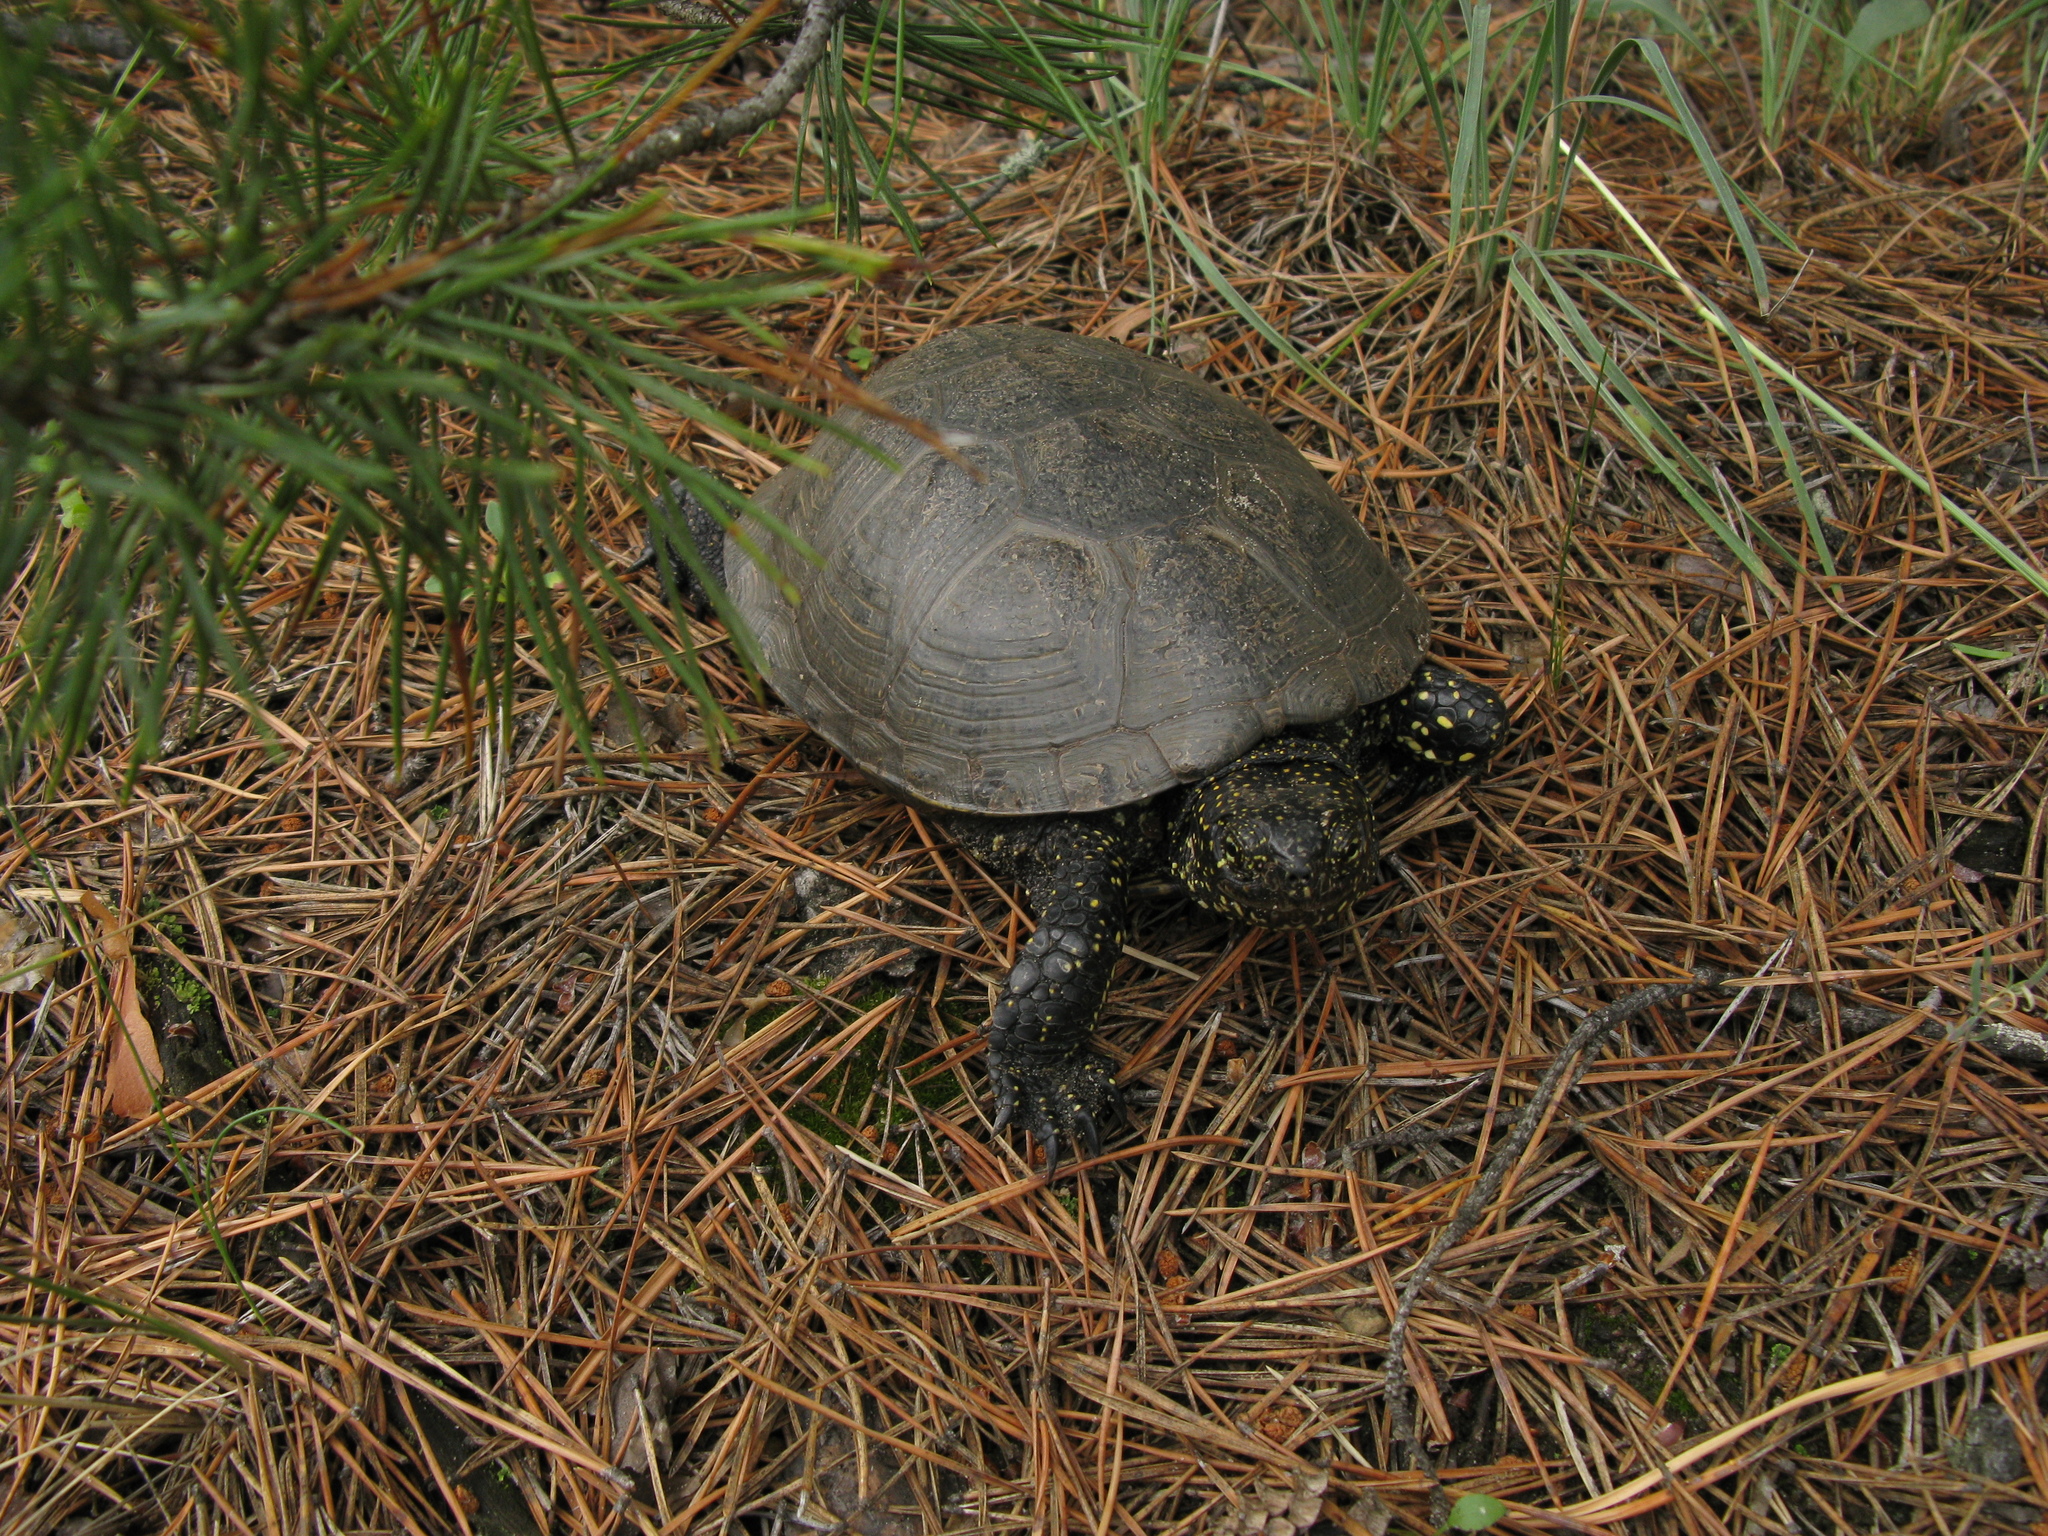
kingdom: Animalia
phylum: Chordata
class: Testudines
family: Emydidae
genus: Emys
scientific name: Emys orbicularis
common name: European pond turtle
